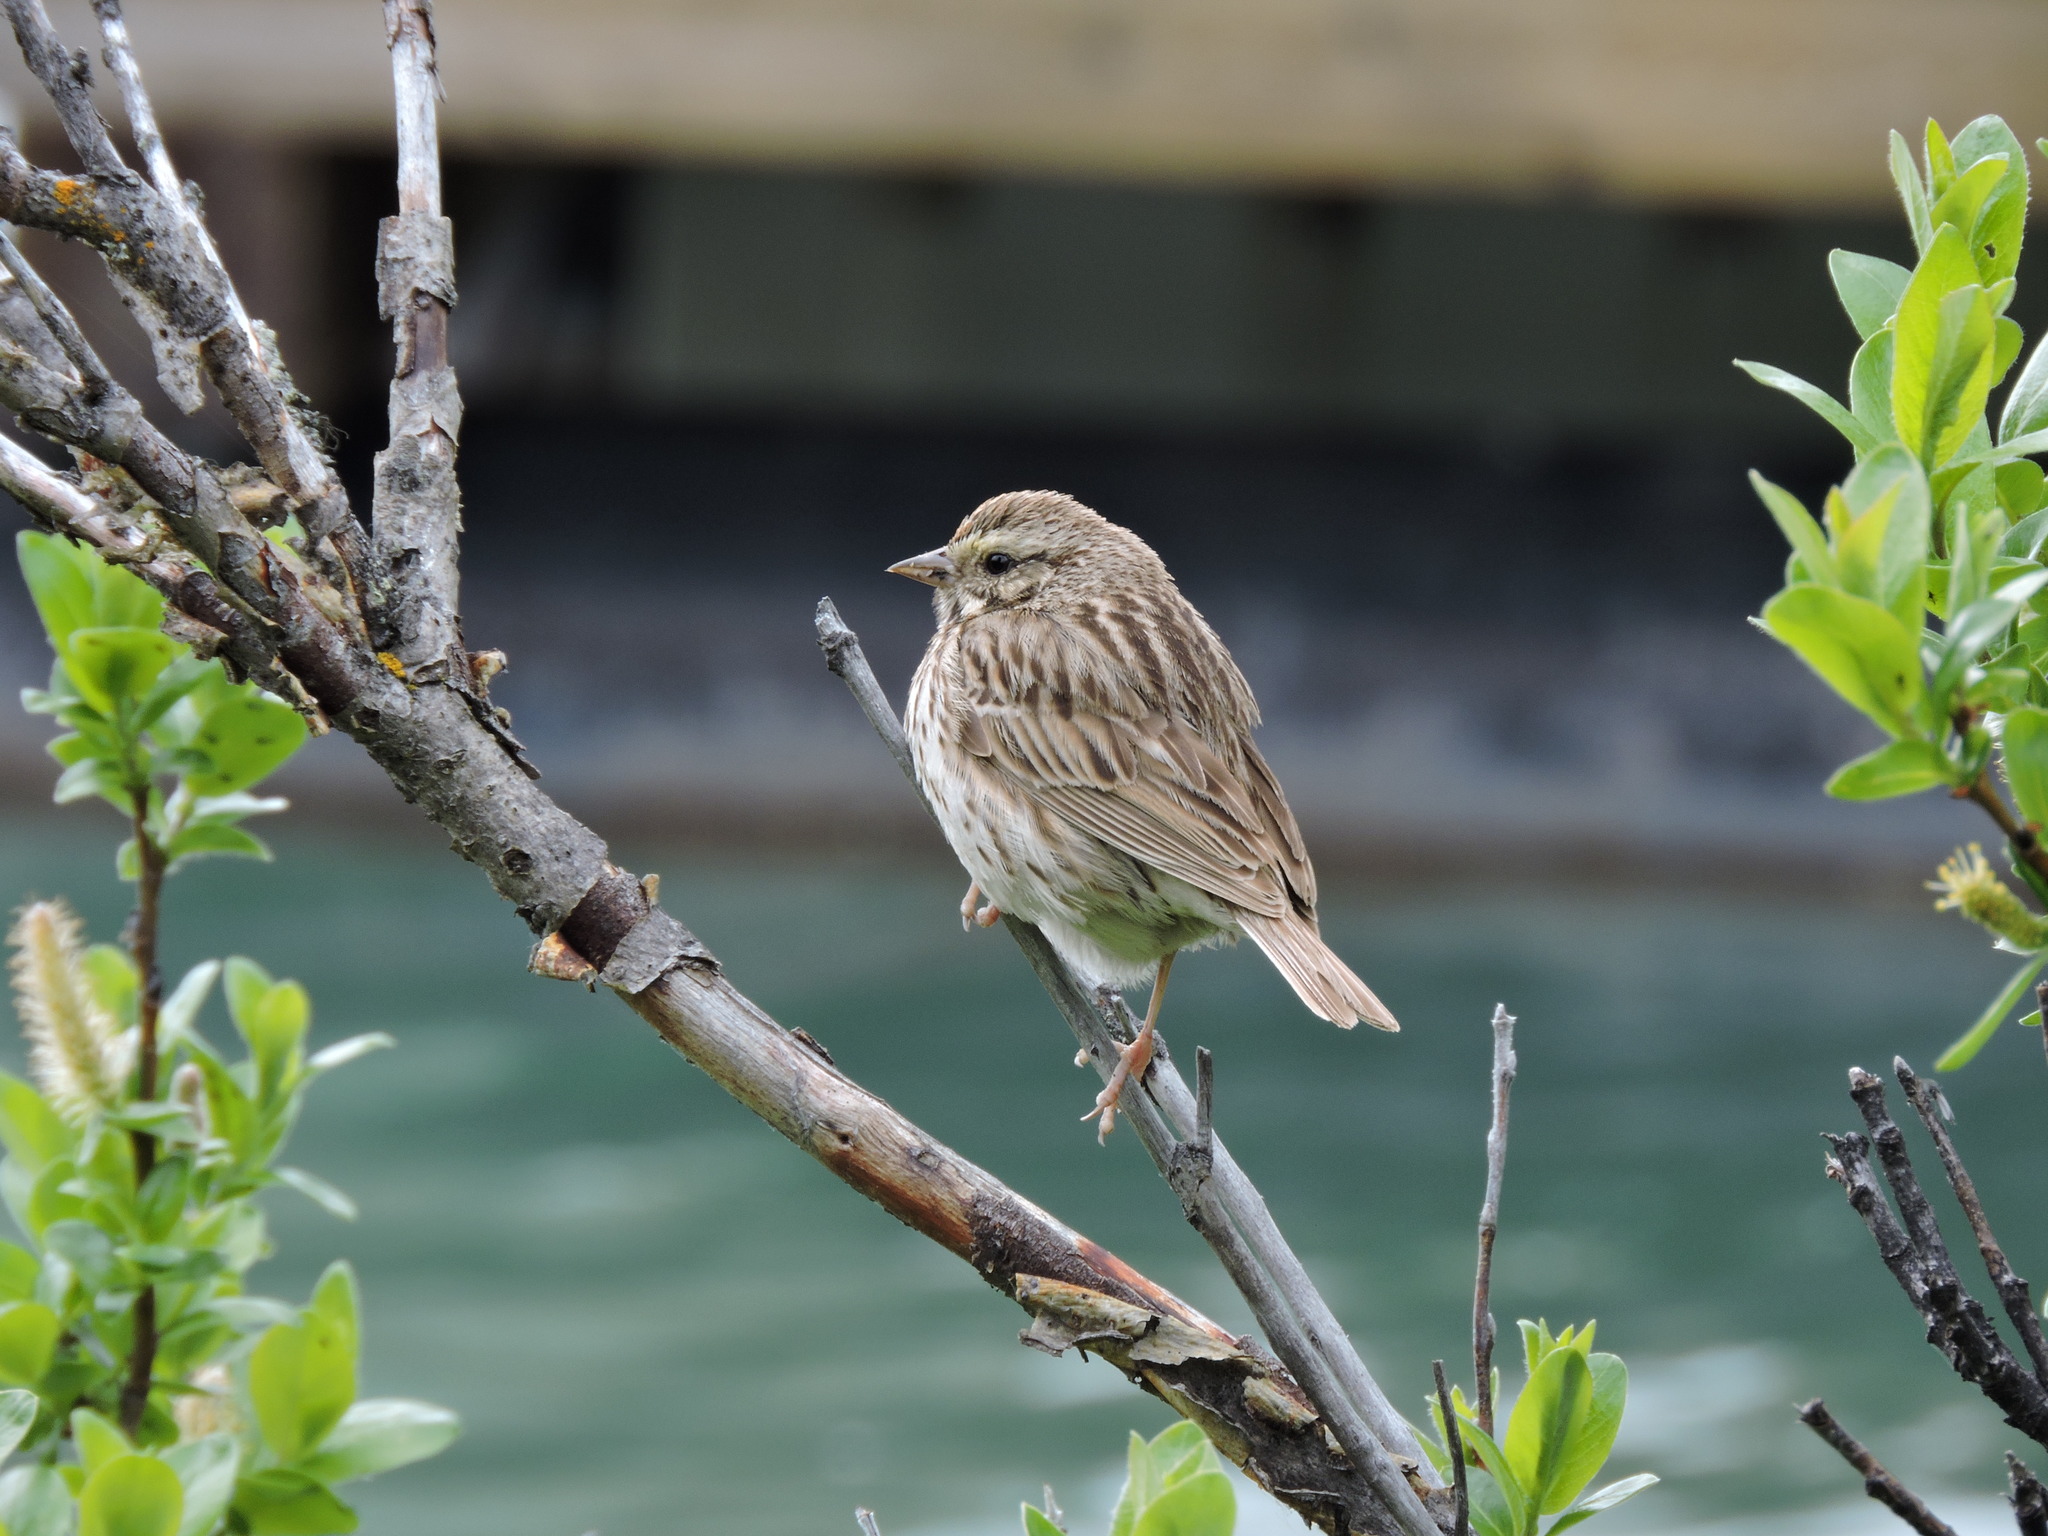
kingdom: Animalia
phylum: Chordata
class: Aves
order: Passeriformes
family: Passerellidae
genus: Passerculus
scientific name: Passerculus sandwichensis
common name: Savannah sparrow
